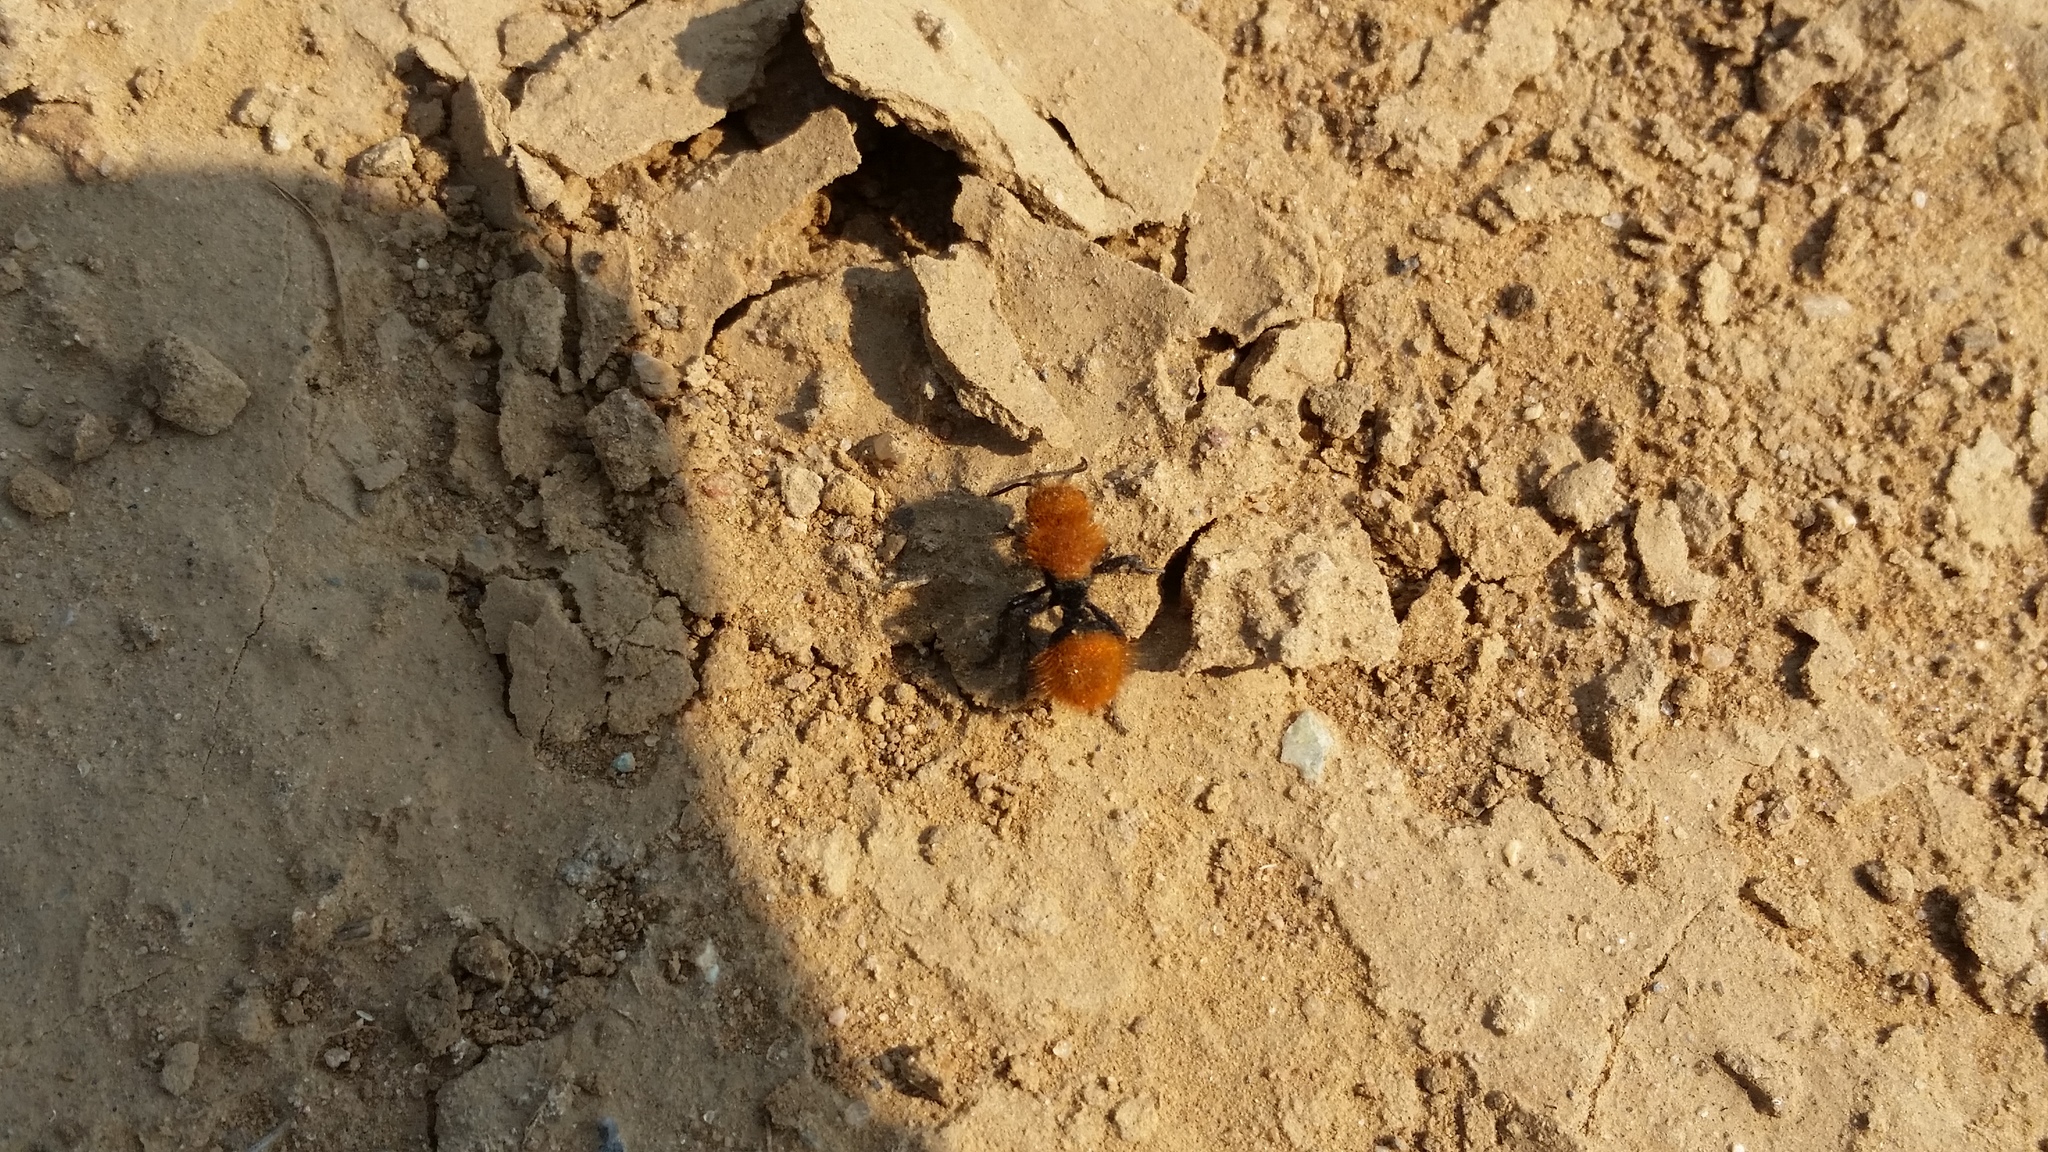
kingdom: Animalia
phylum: Arthropoda
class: Insecta
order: Hymenoptera
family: Mutillidae
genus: Dasymutilla
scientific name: Dasymutilla
